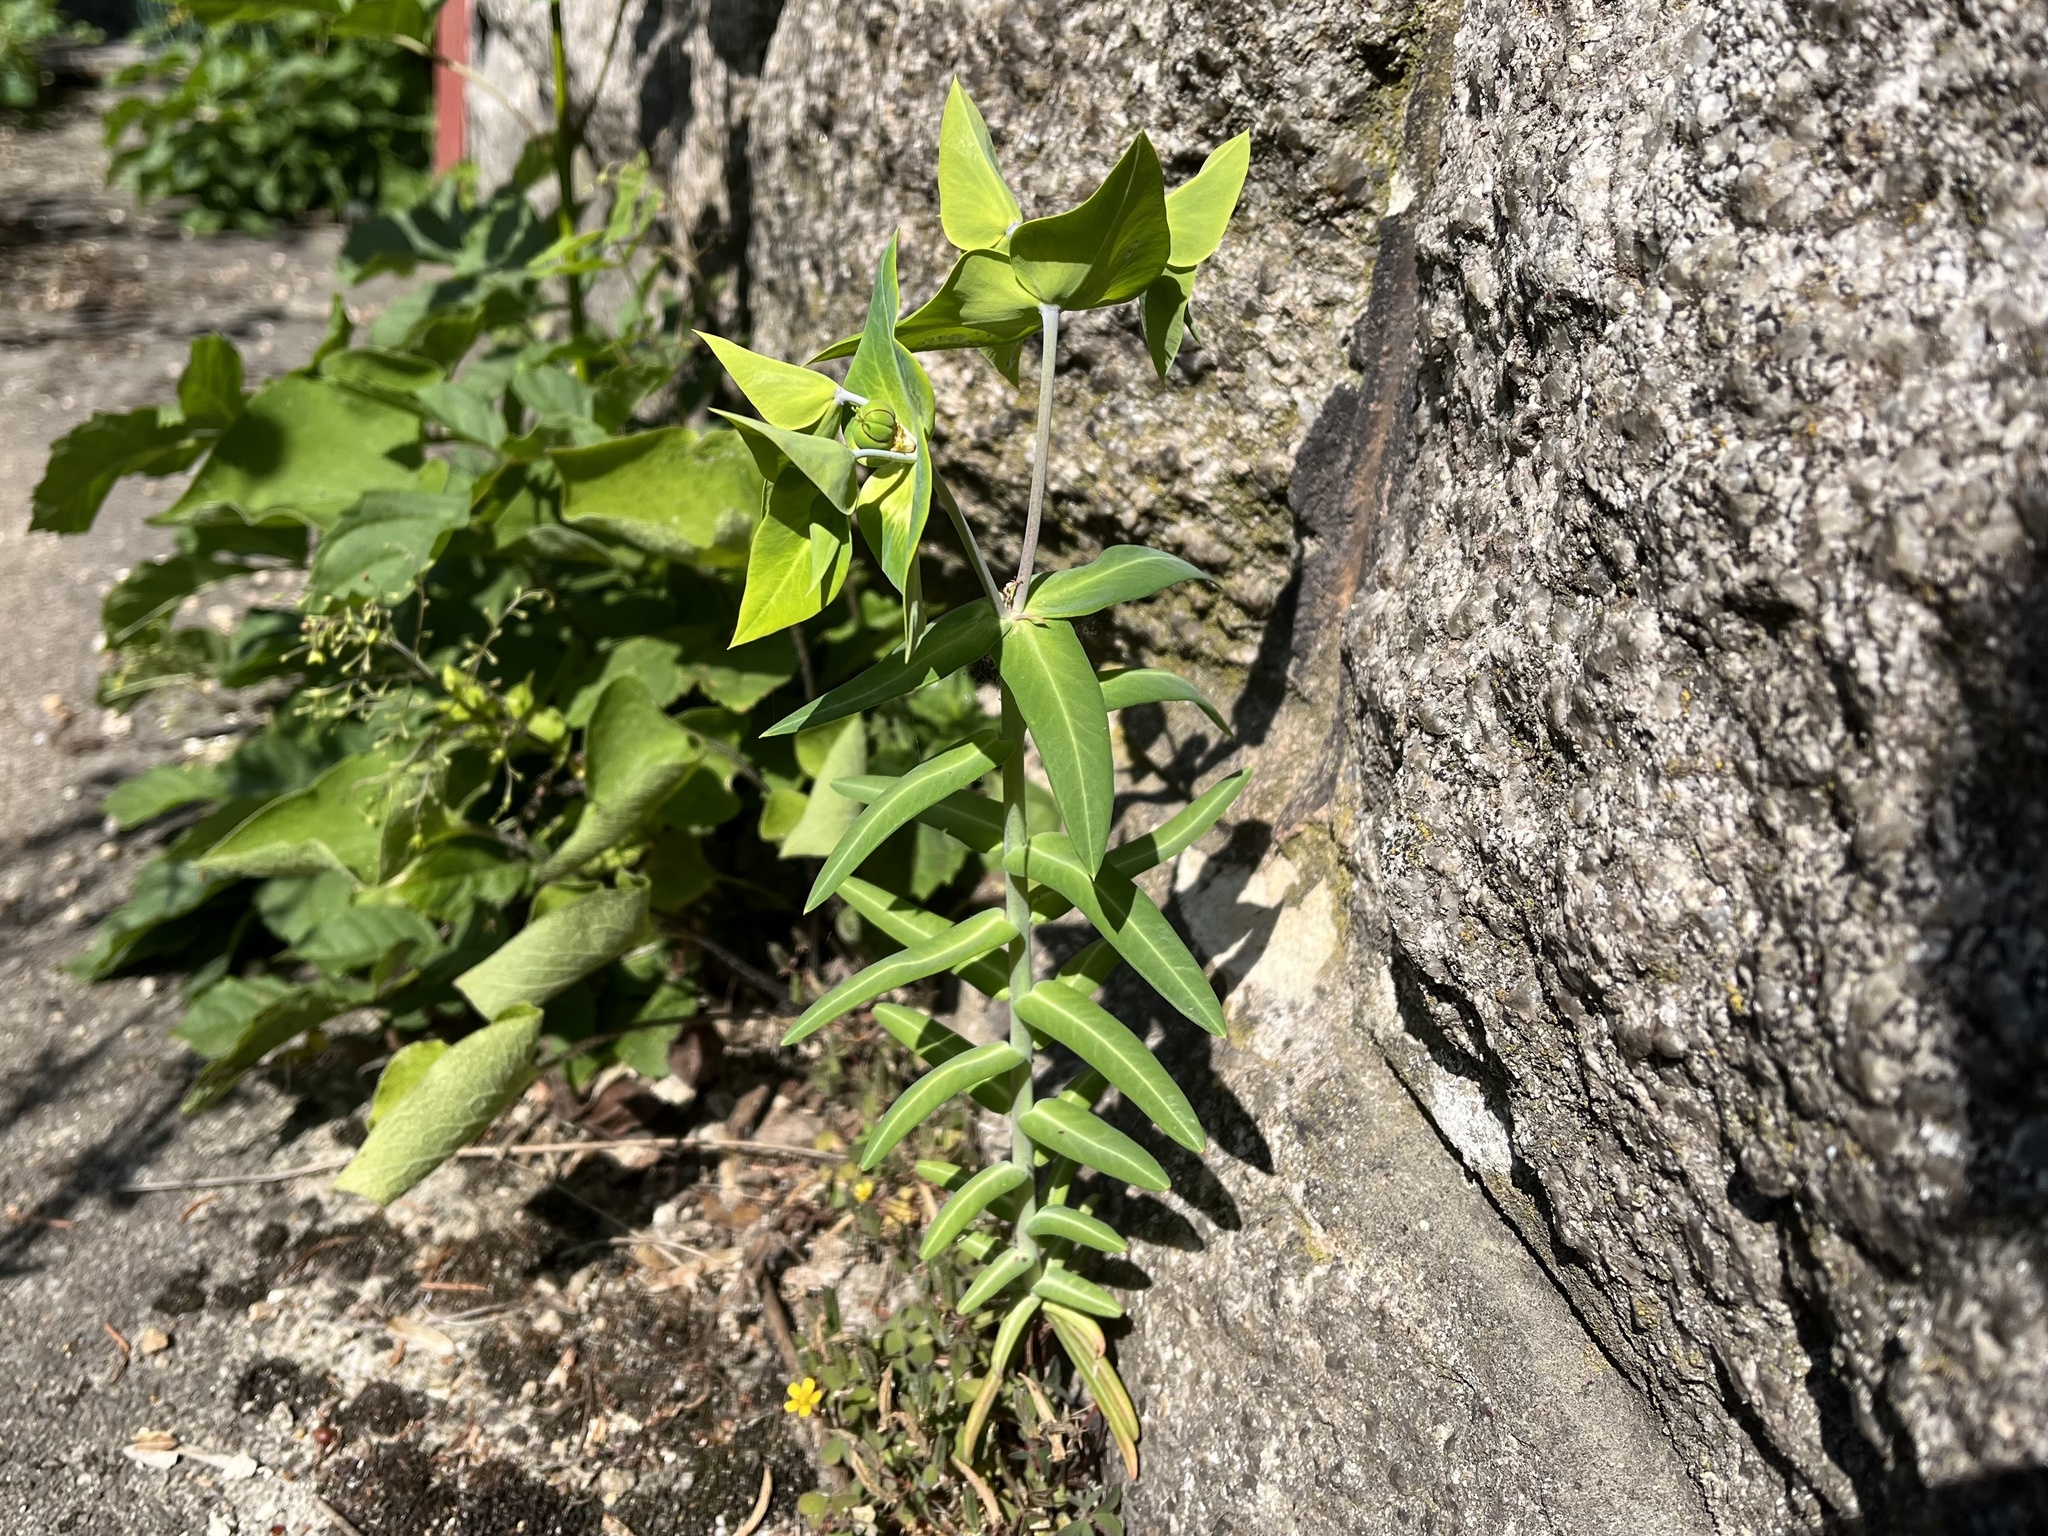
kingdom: Plantae
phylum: Tracheophyta
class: Magnoliopsida
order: Malpighiales
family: Euphorbiaceae
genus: Euphorbia
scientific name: Euphorbia lathyris
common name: Caper spurge
